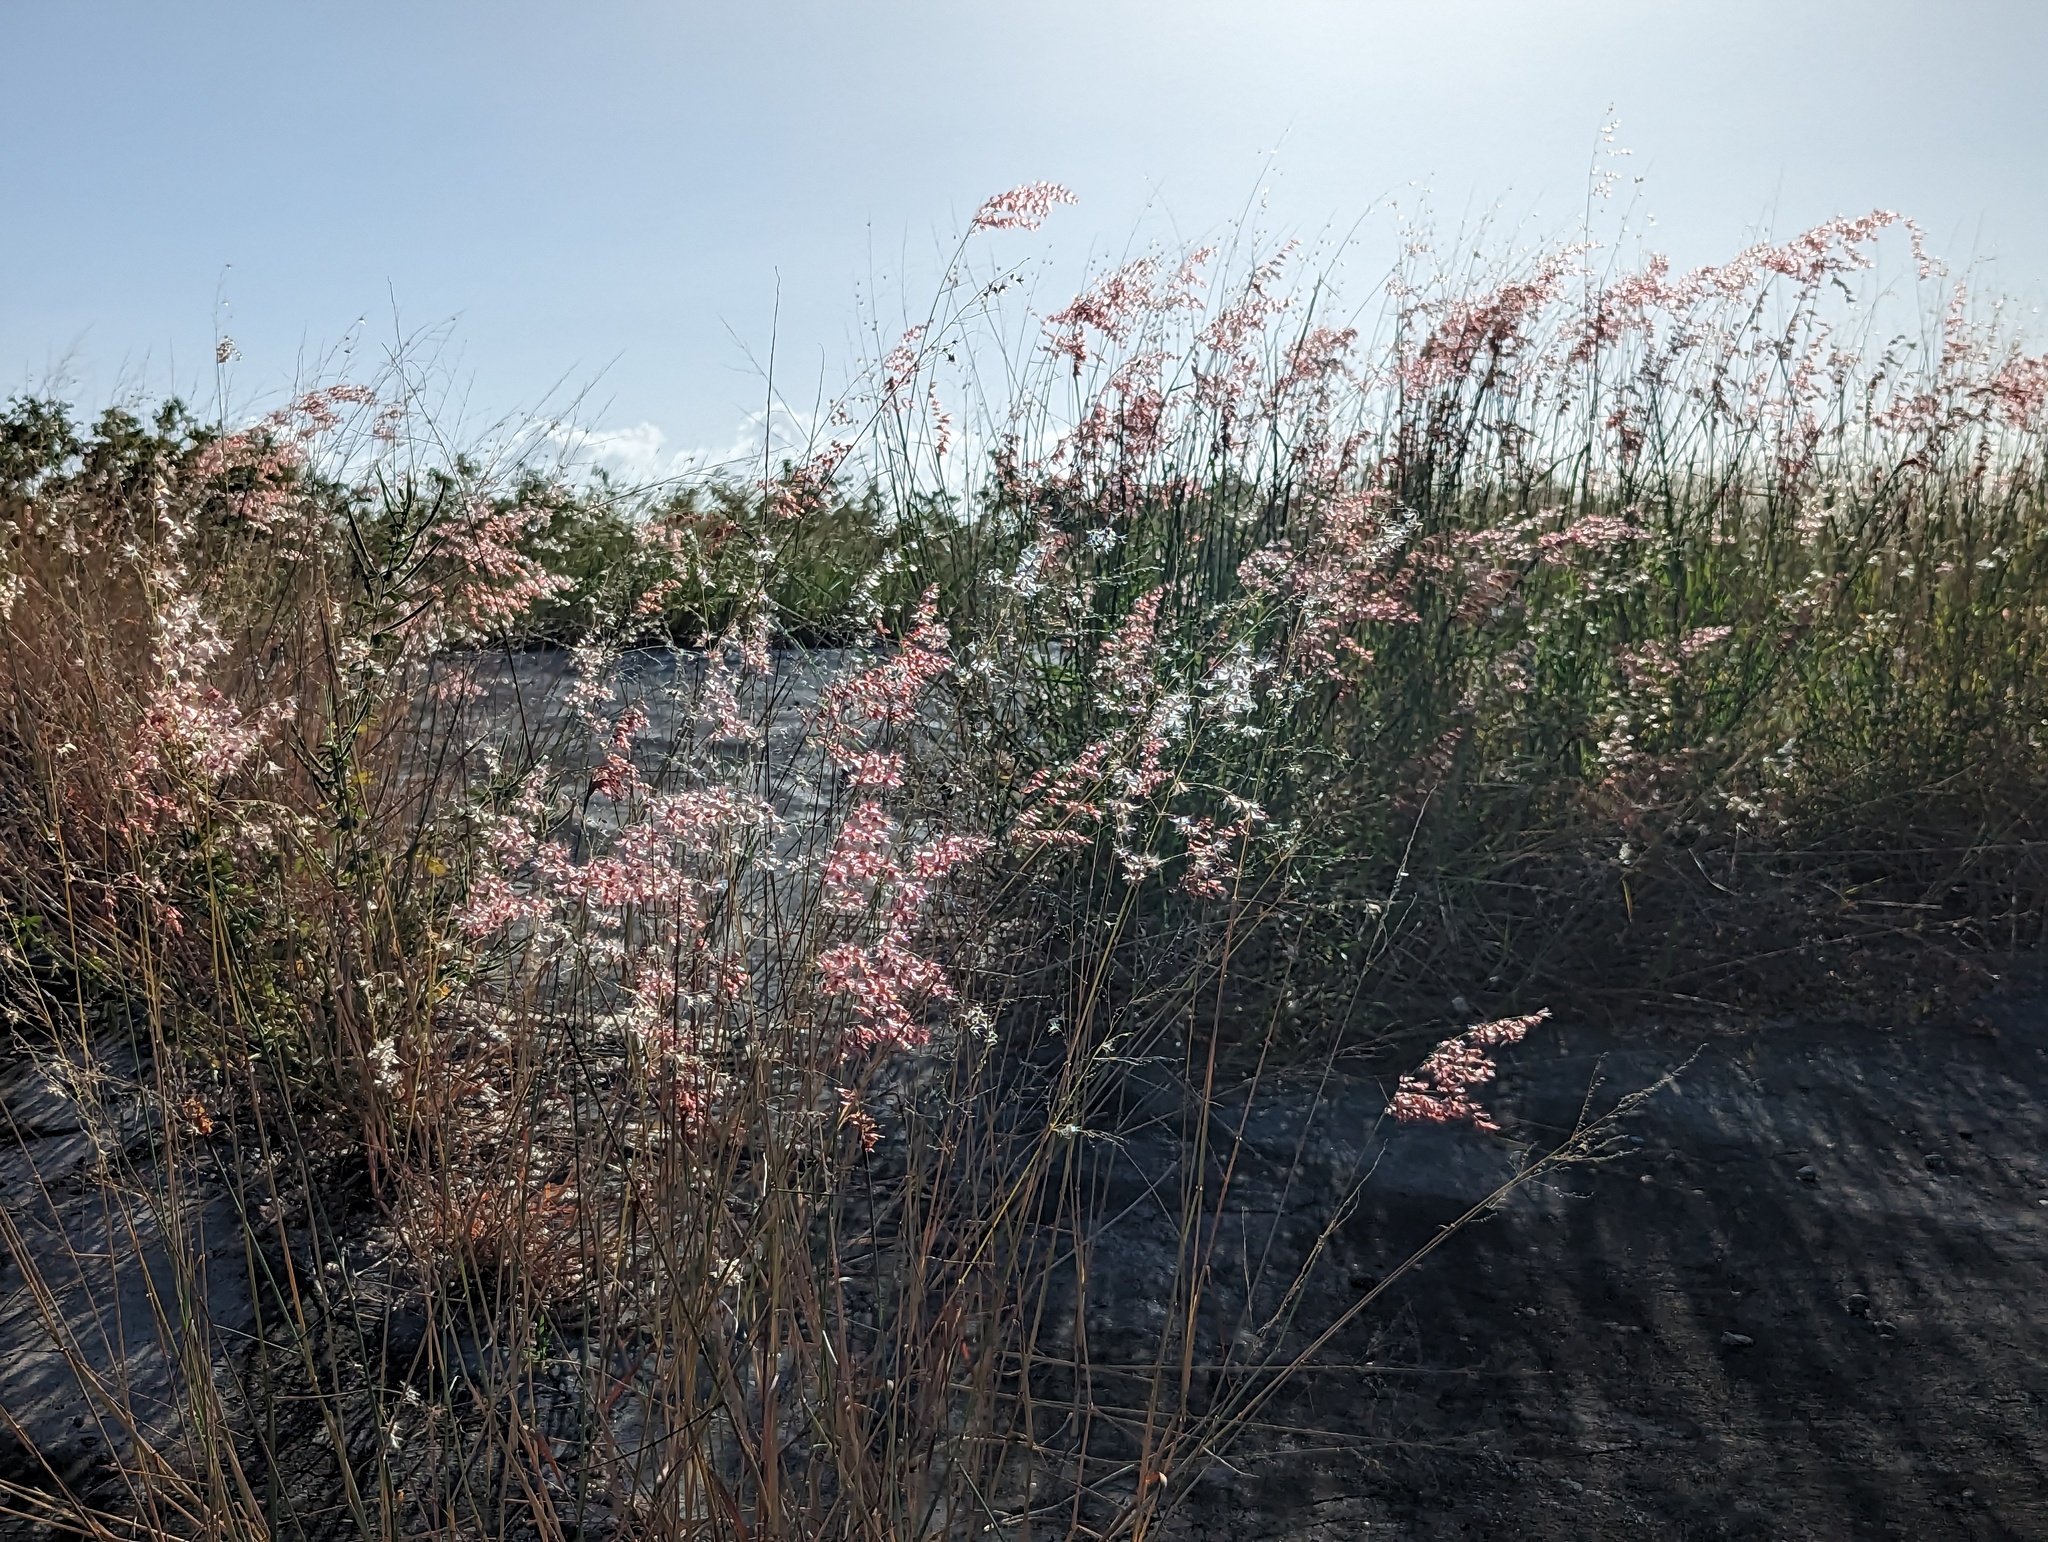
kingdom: Plantae
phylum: Tracheophyta
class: Liliopsida
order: Poales
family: Poaceae
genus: Melinis
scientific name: Melinis repens
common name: Rose natal grass
